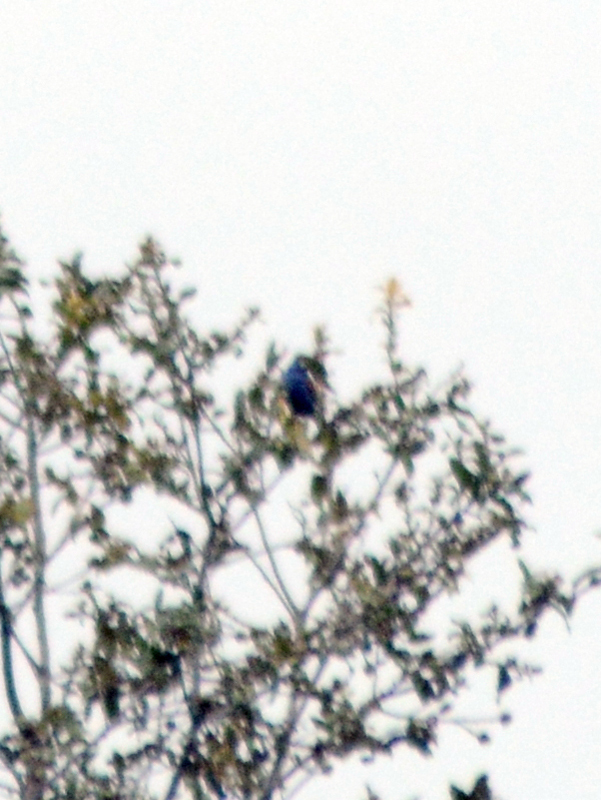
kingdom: Animalia
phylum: Chordata
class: Aves
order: Passeriformes
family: Cardinalidae
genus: Passerina
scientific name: Passerina caerulea
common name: Blue grosbeak
